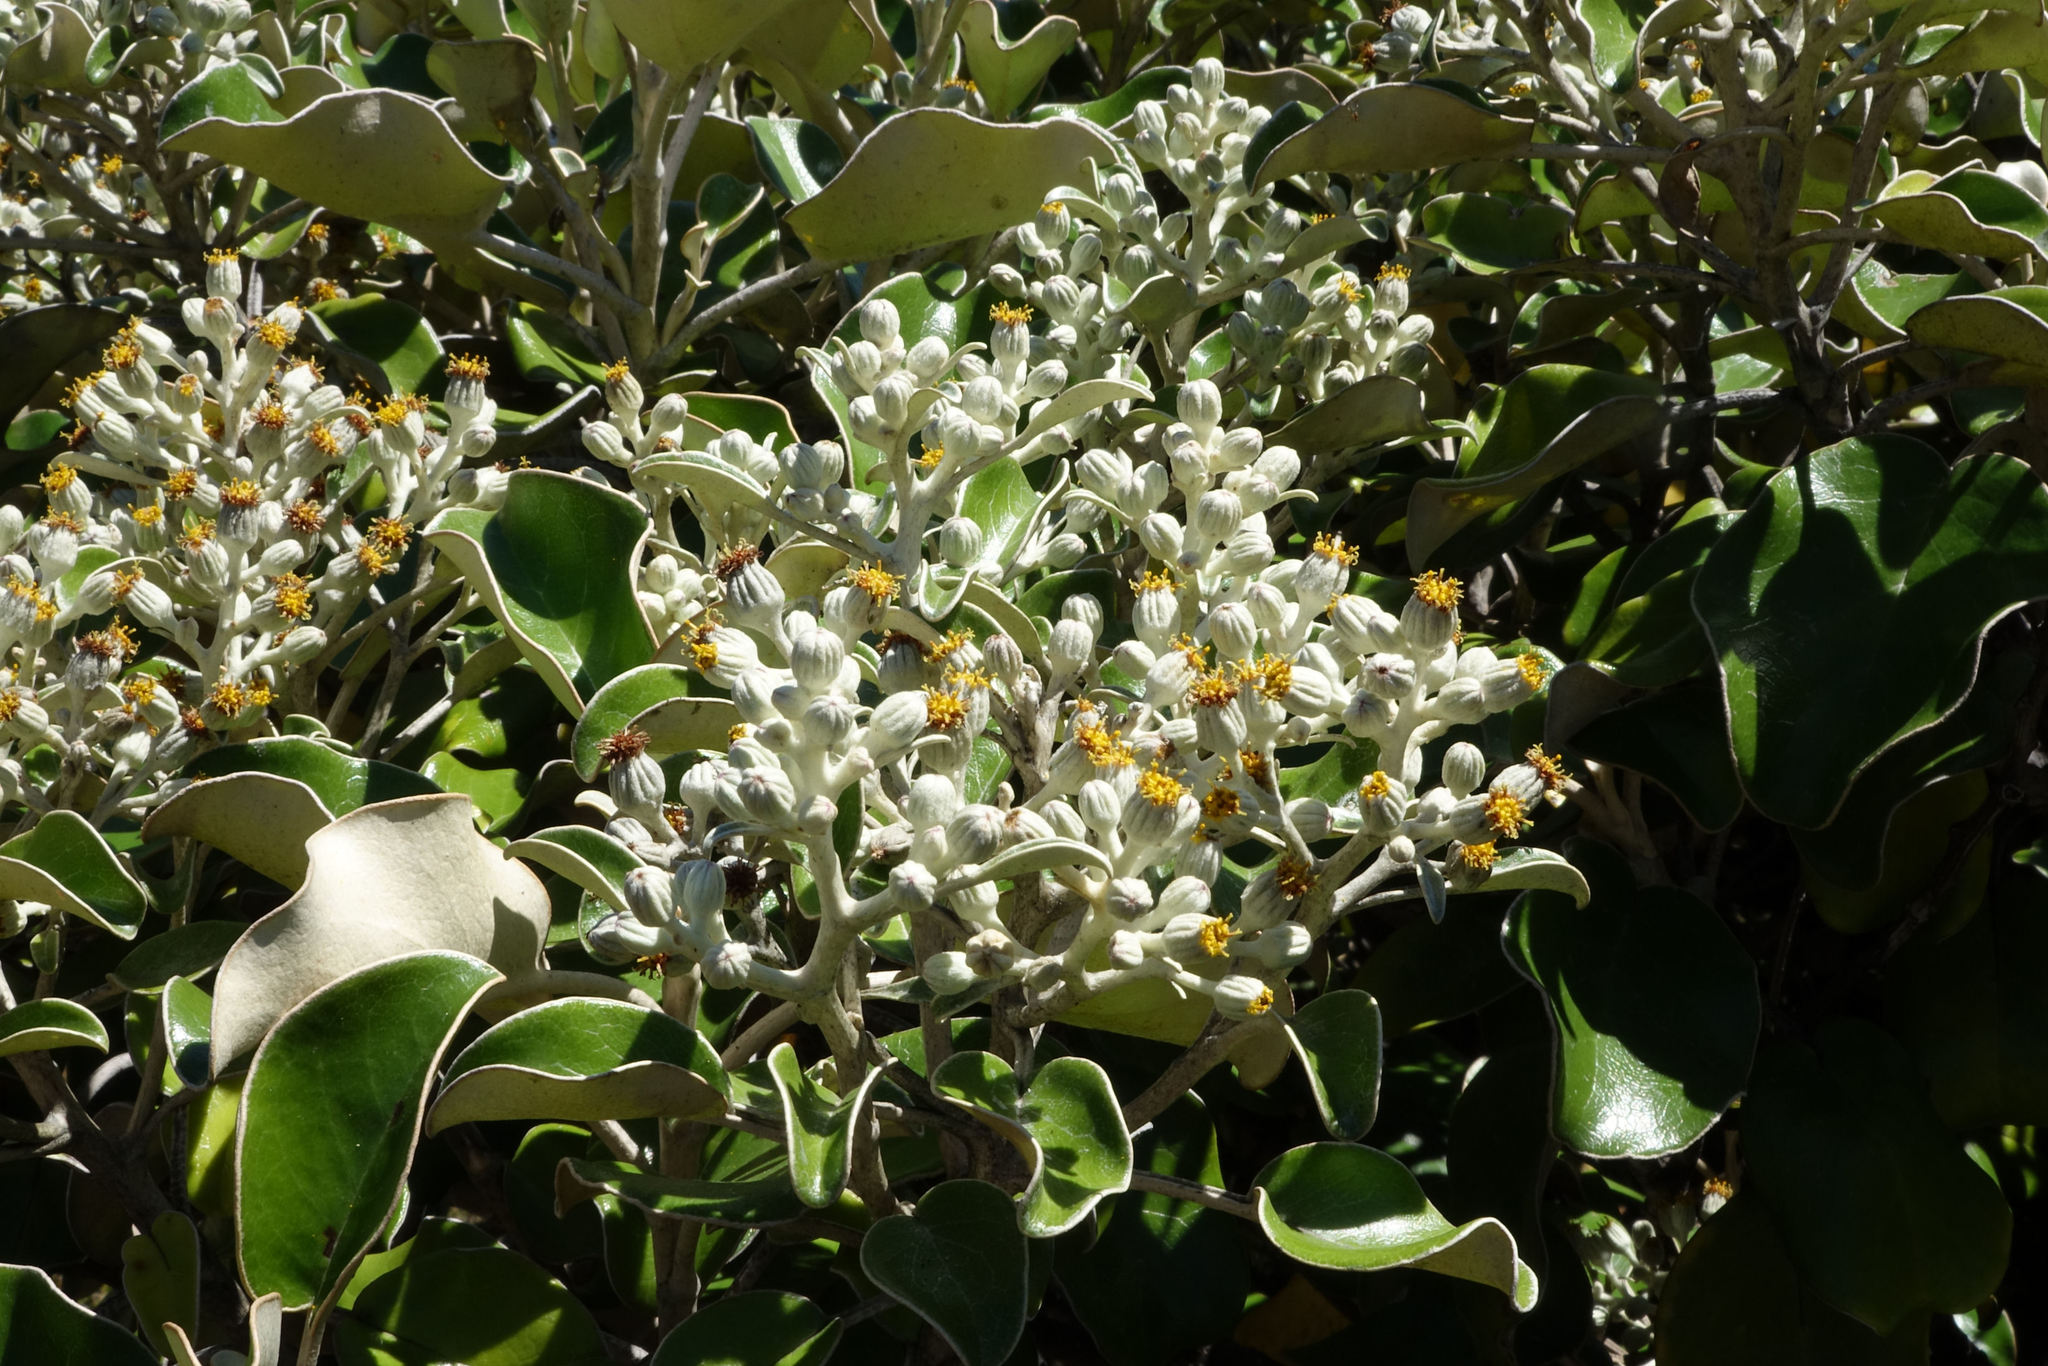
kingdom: Plantae
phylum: Tracheophyta
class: Magnoliopsida
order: Asterales
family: Asteraceae
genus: Brachyglottis
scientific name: Brachyglottis rotundifolia
